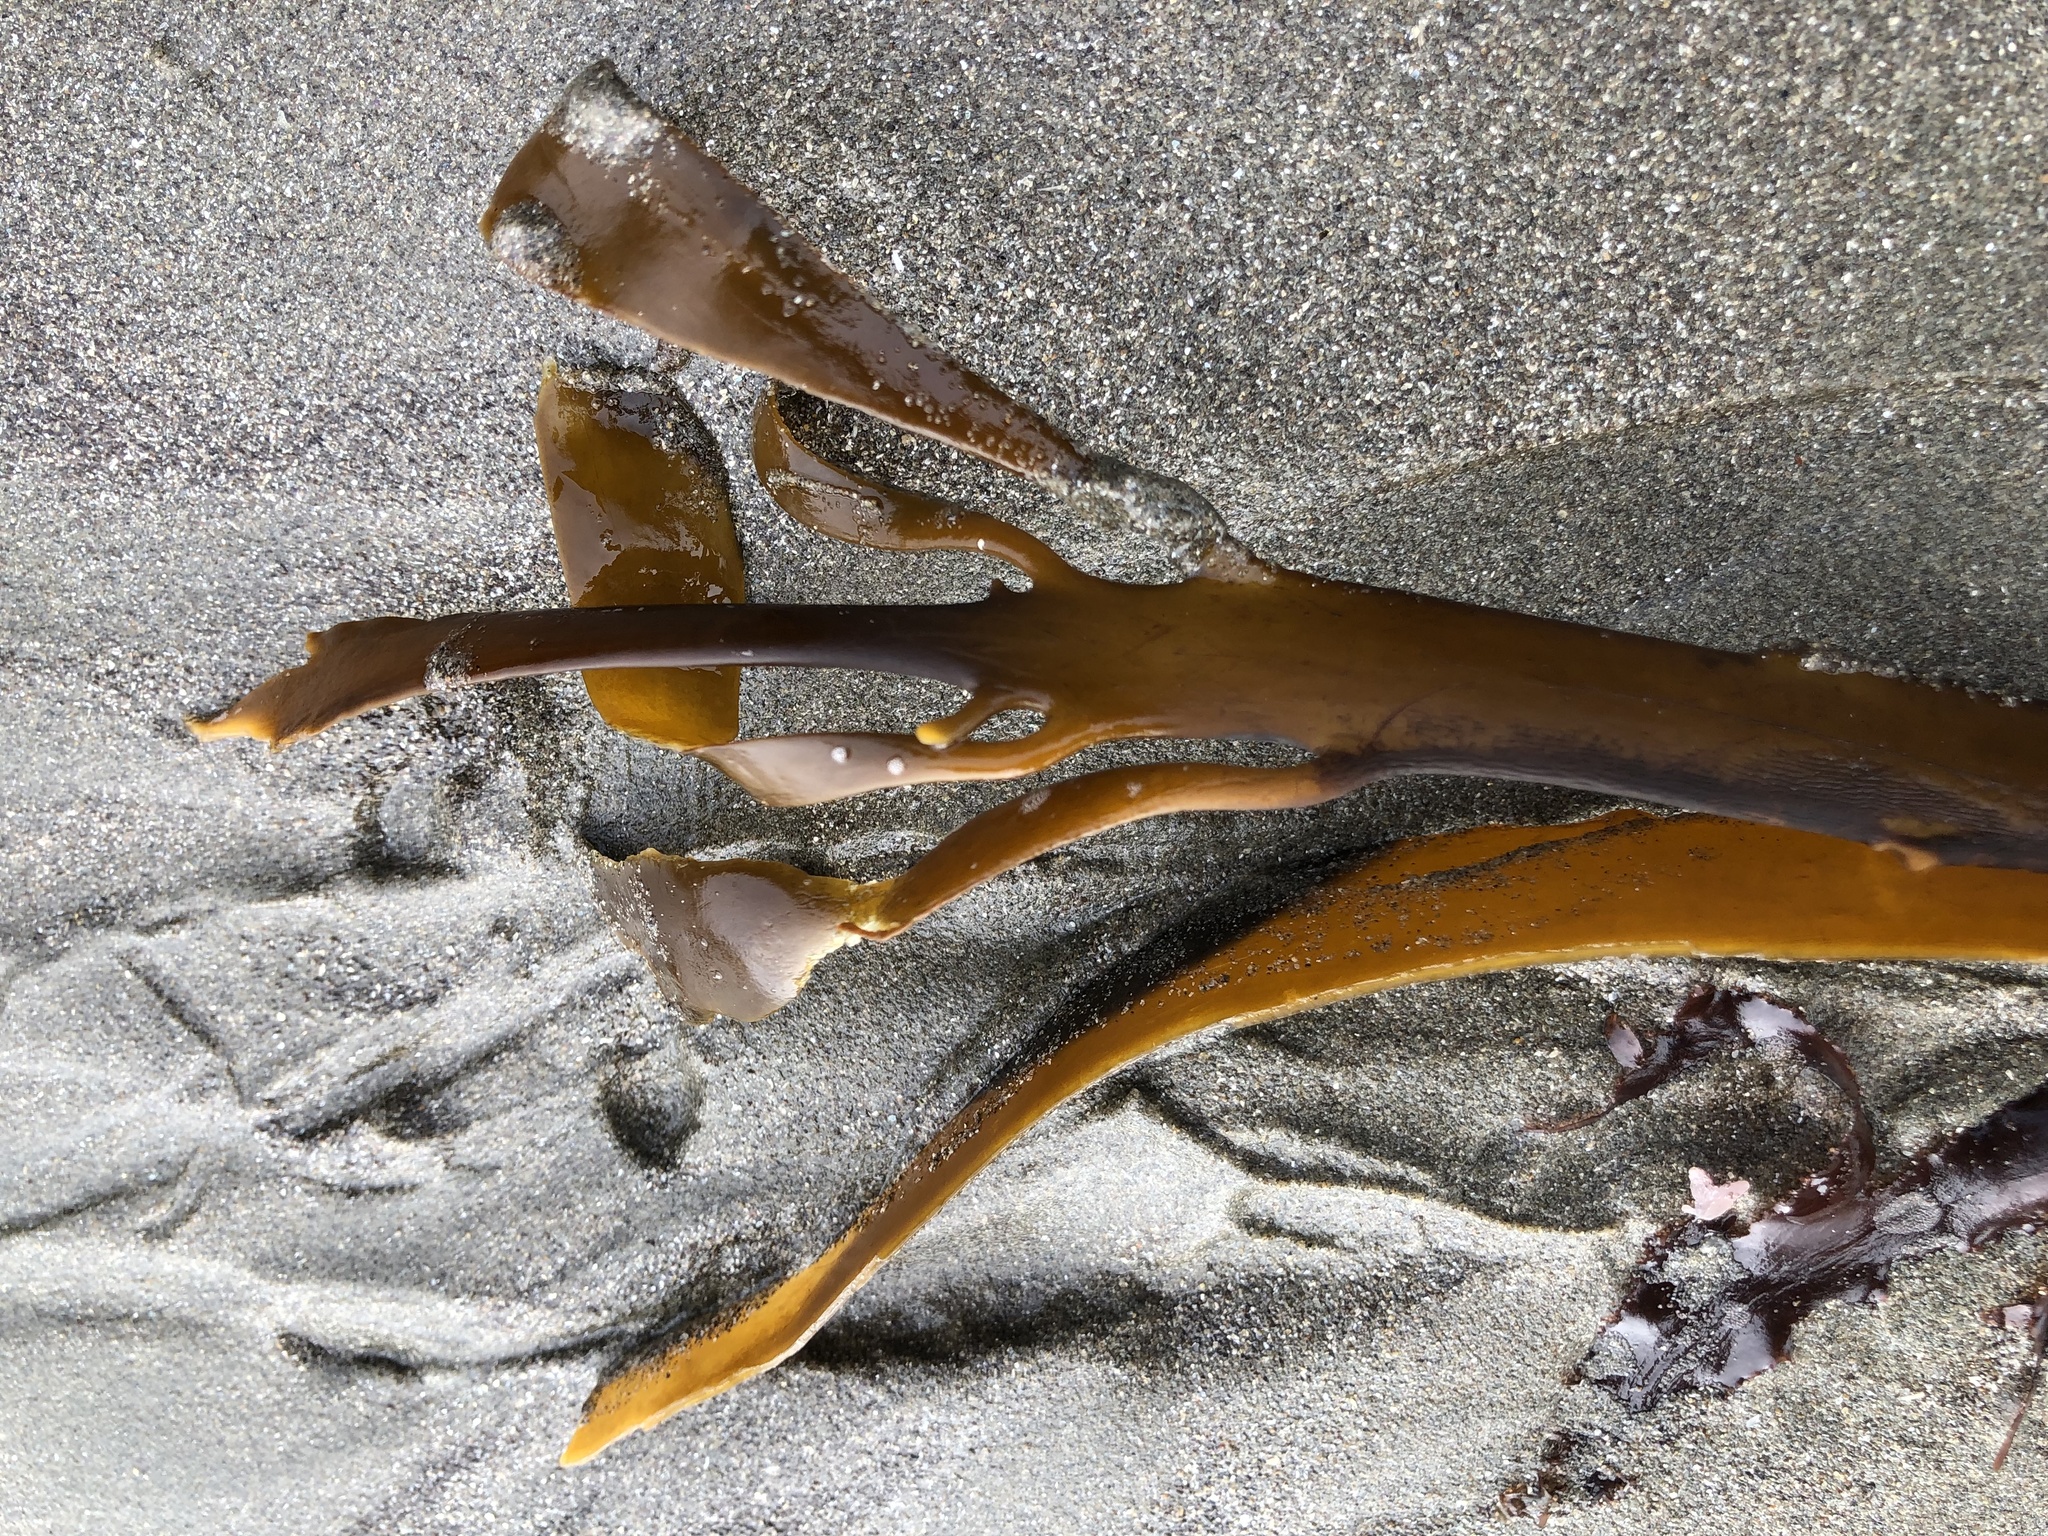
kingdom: Chromista
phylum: Ochrophyta
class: Phaeophyceae
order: Laminariales
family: Alariaceae
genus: Pterygophora
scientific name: Pterygophora californica
